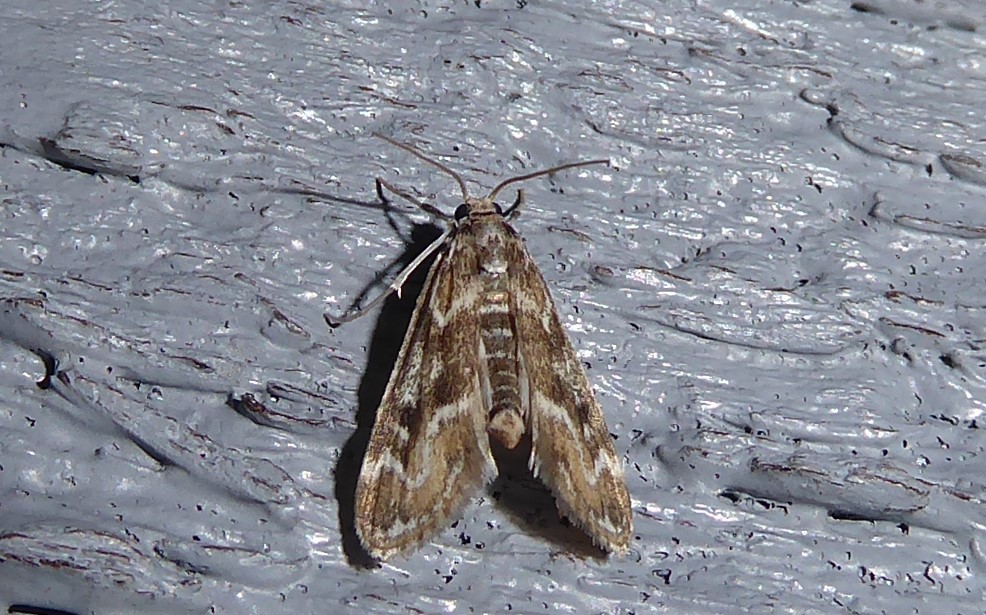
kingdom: Animalia
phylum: Arthropoda
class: Insecta
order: Lepidoptera
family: Crambidae
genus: Hygraula
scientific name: Hygraula nitens
